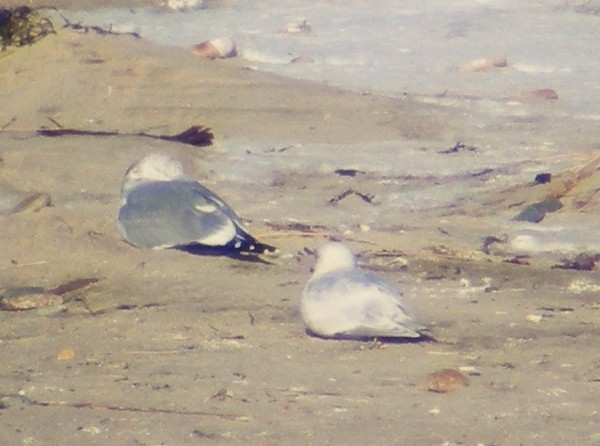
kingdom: Animalia
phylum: Chordata
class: Aves
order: Charadriiformes
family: Laridae
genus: Larus
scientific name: Larus glaucoides
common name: Iceland gull
